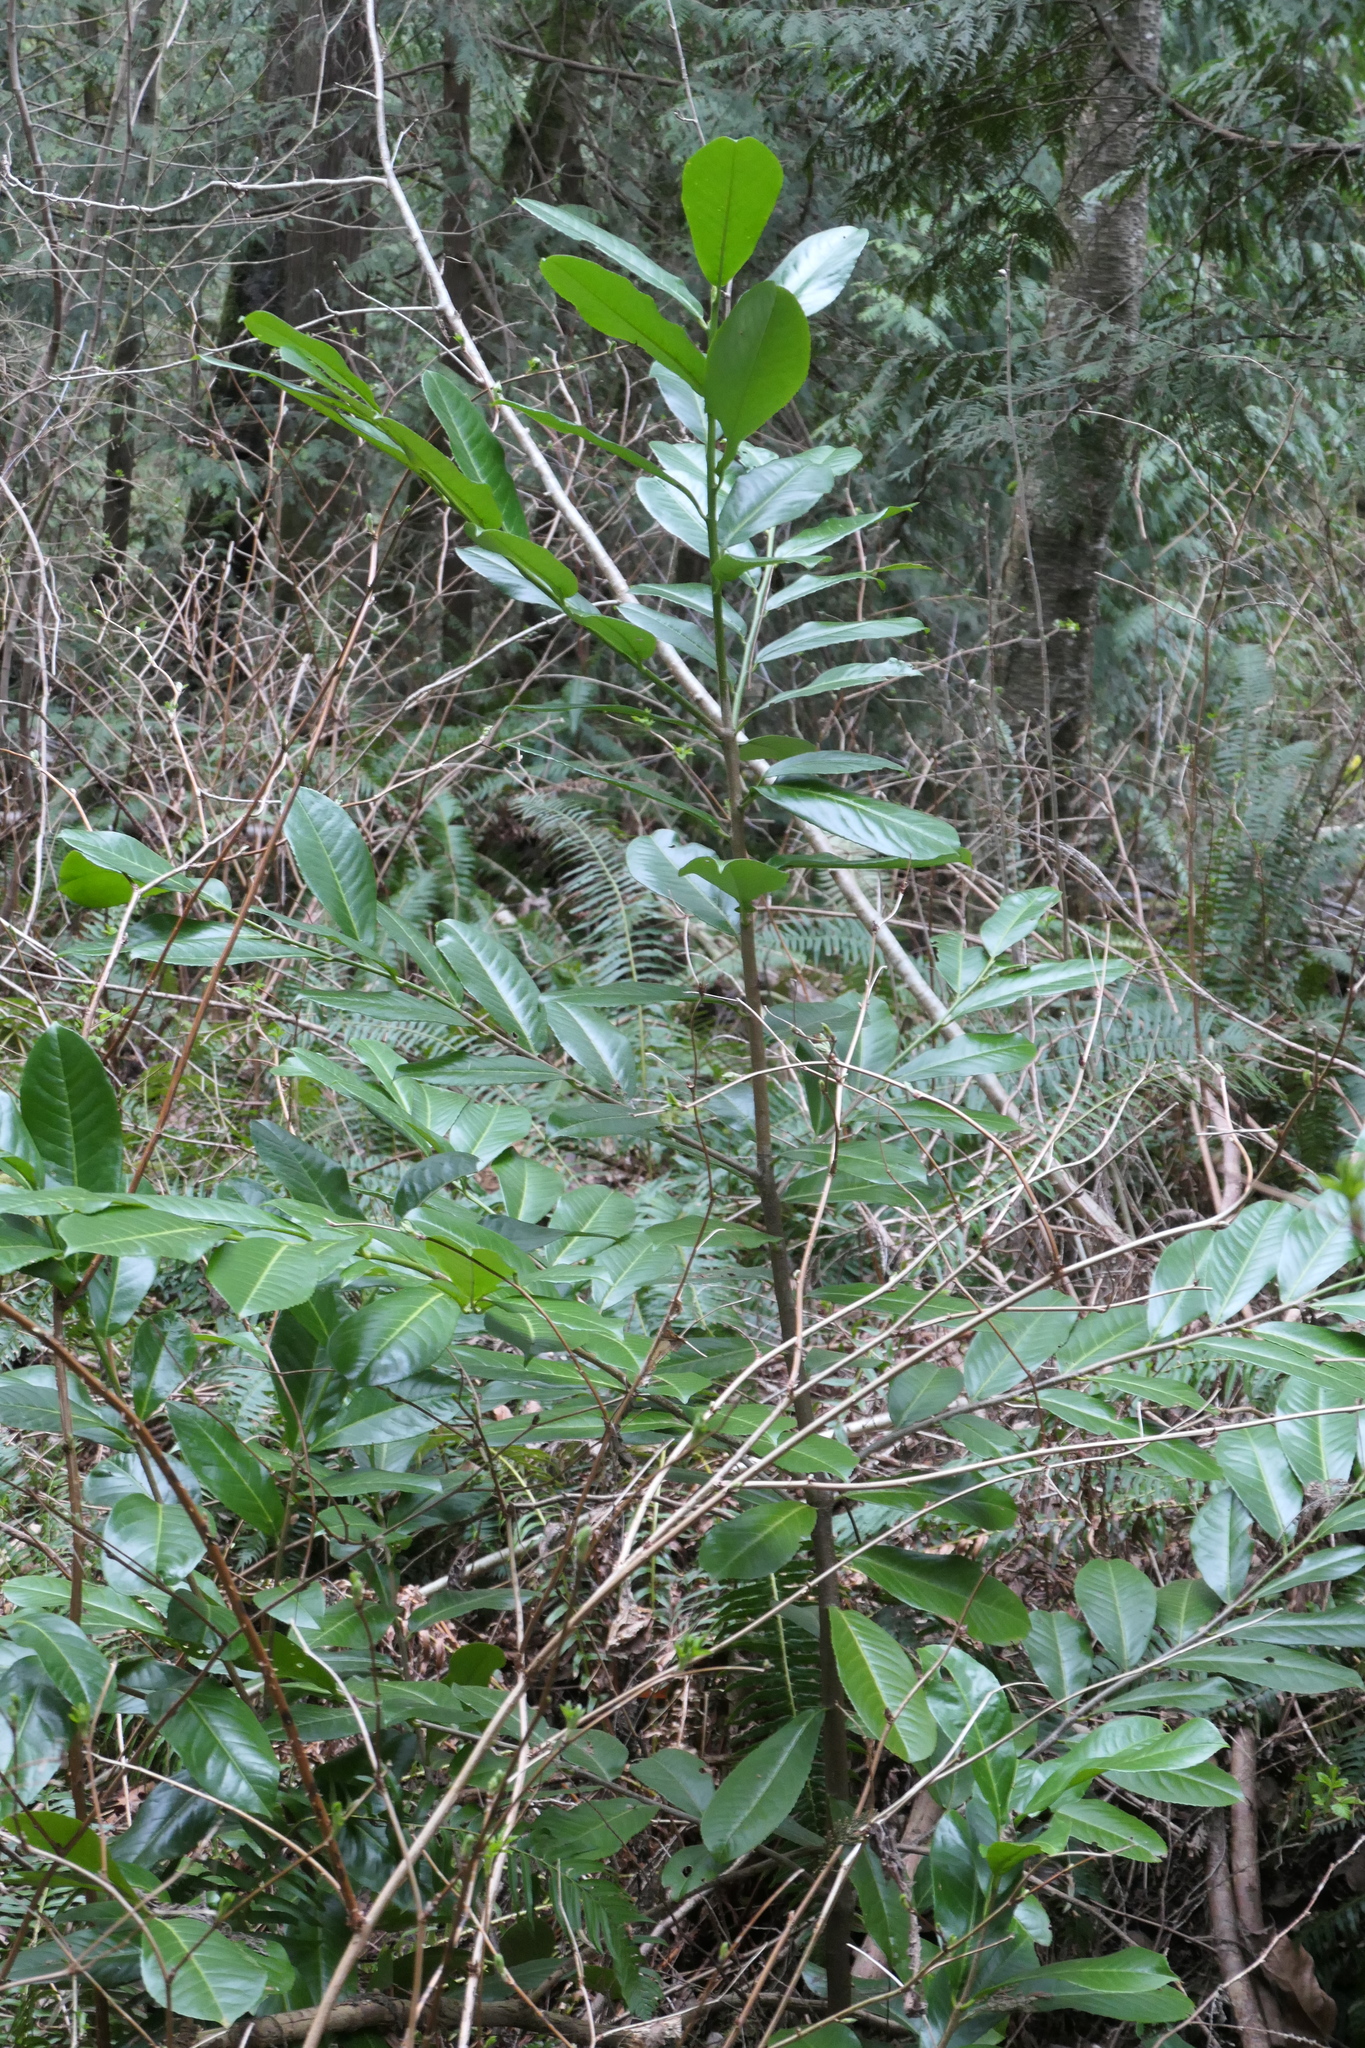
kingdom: Plantae
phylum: Tracheophyta
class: Magnoliopsida
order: Rosales
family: Rosaceae
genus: Prunus
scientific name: Prunus laurocerasus
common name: Cherry laurel
